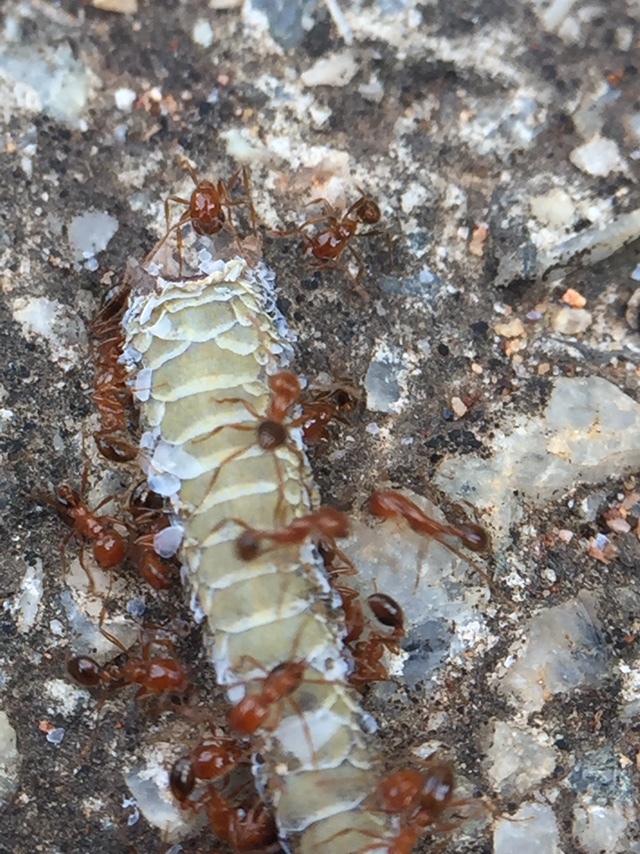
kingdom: Animalia
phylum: Arthropoda
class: Insecta
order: Hymenoptera
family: Formicidae
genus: Solenopsis
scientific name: Solenopsis geminata
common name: Tropical fire ant
